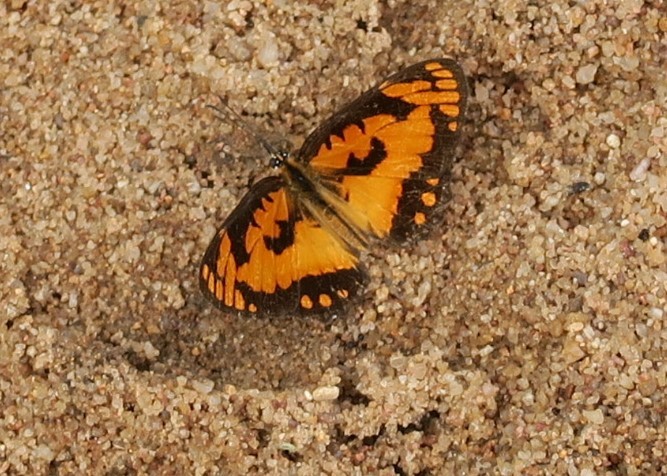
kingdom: Animalia
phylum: Arthropoda
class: Insecta
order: Lepidoptera
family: Nymphalidae
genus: Byblia
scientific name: Byblia acheloia
